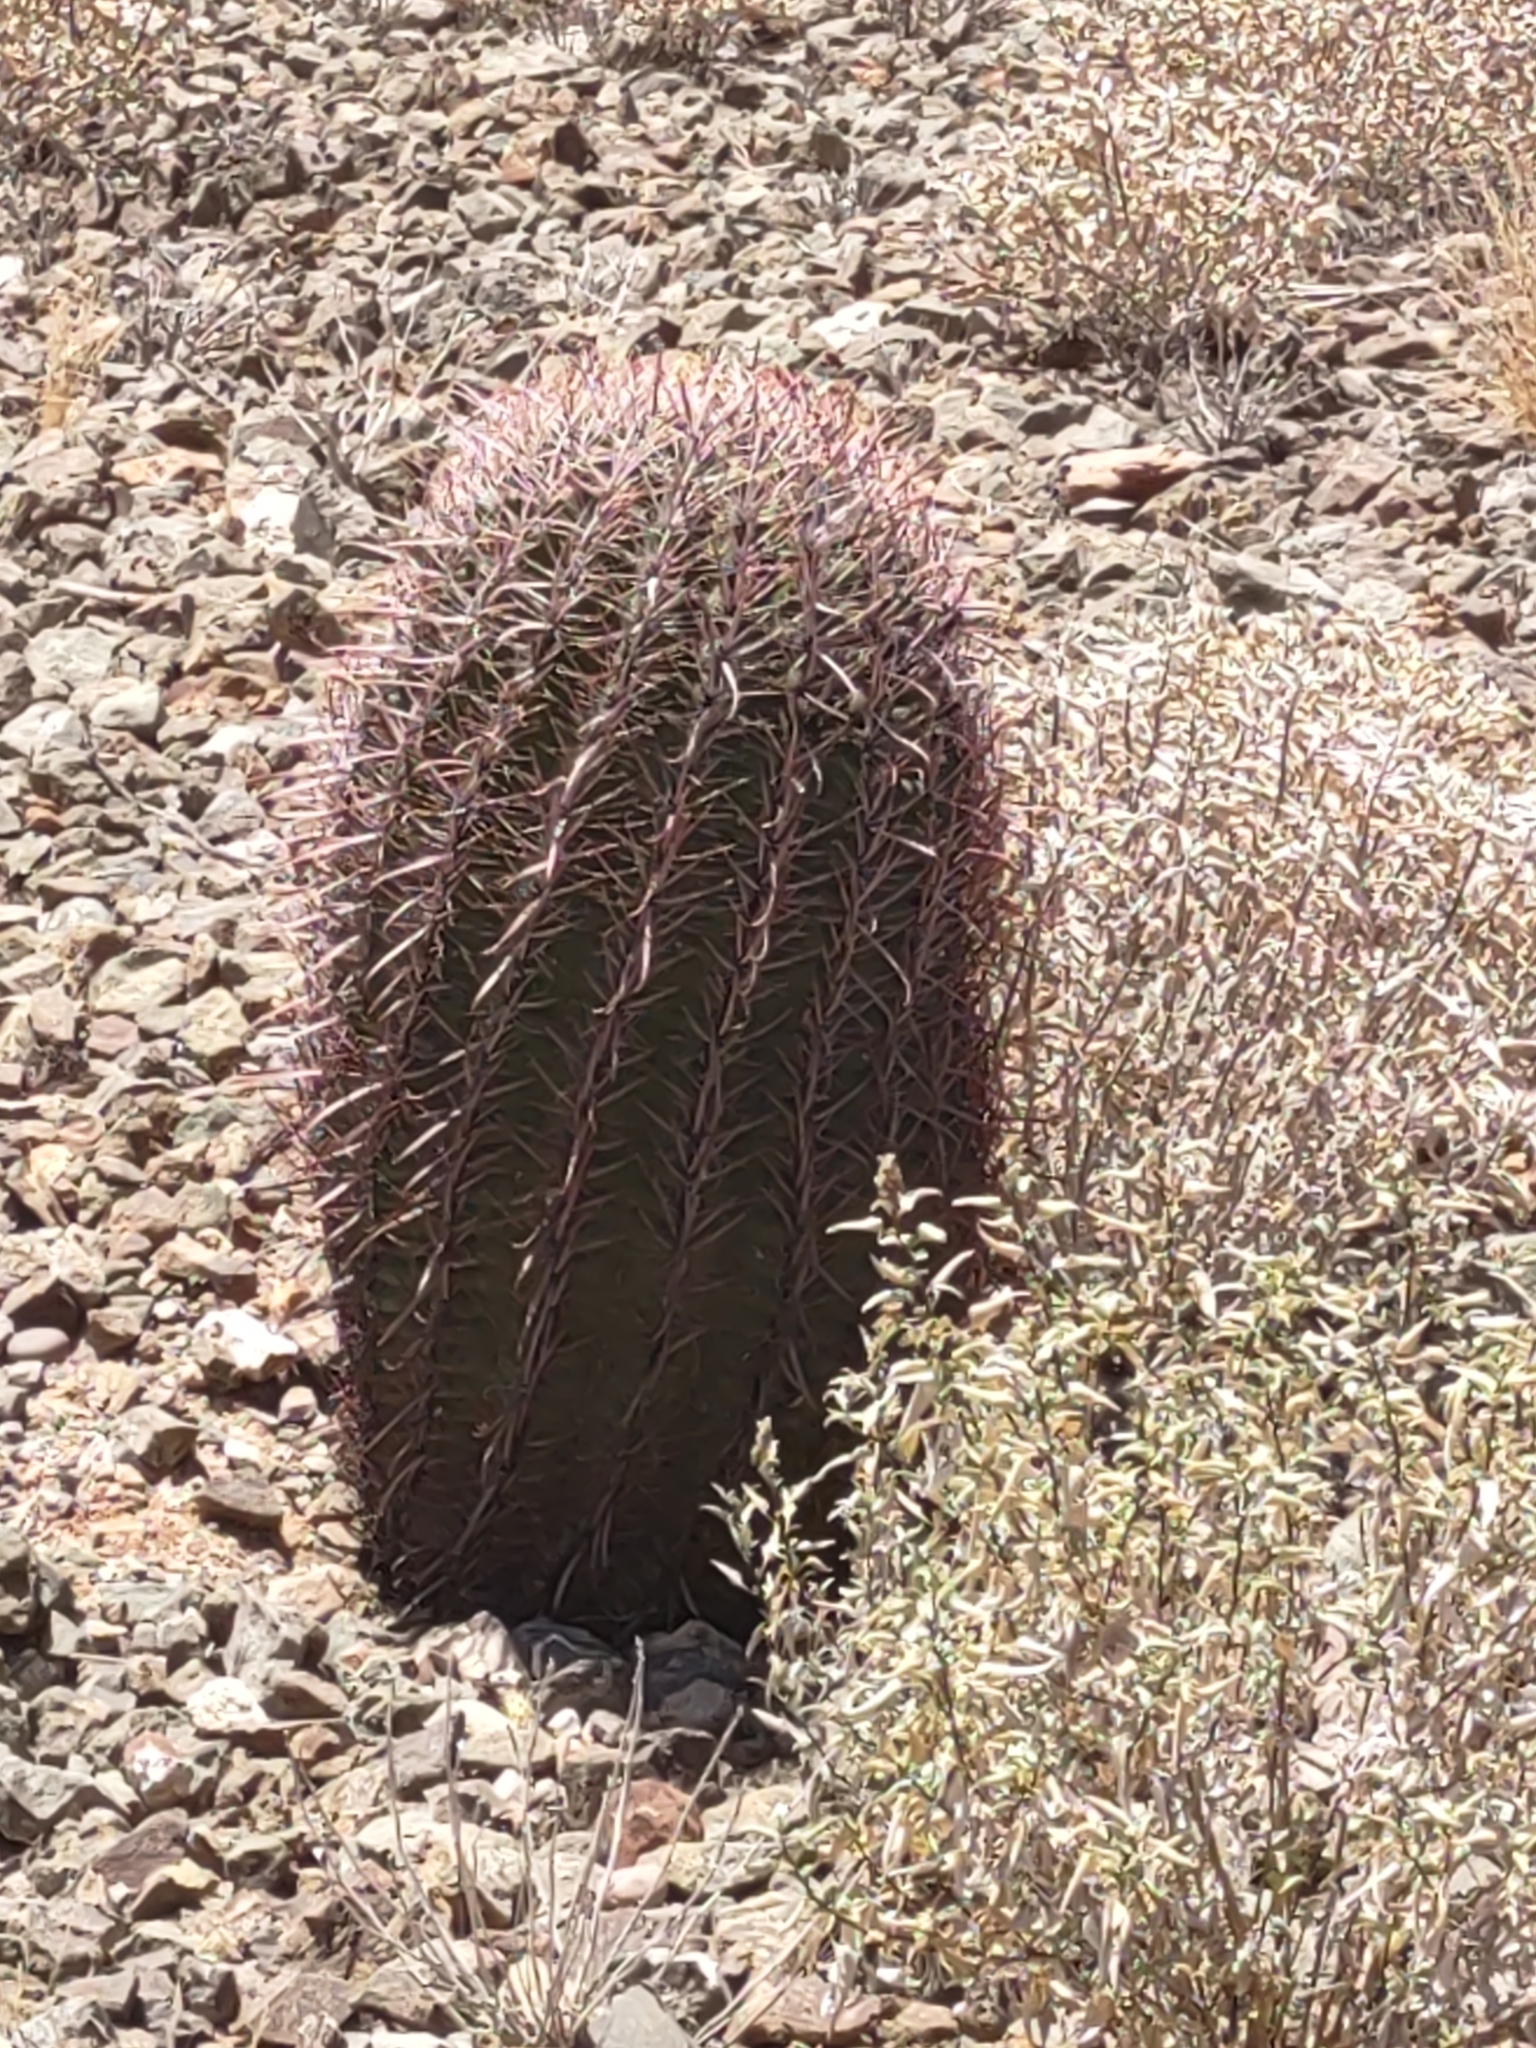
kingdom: Plantae
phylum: Tracheophyta
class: Magnoliopsida
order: Caryophyllales
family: Cactaceae
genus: Ferocactus
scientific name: Ferocactus cylindraceus
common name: California barrel cactus
